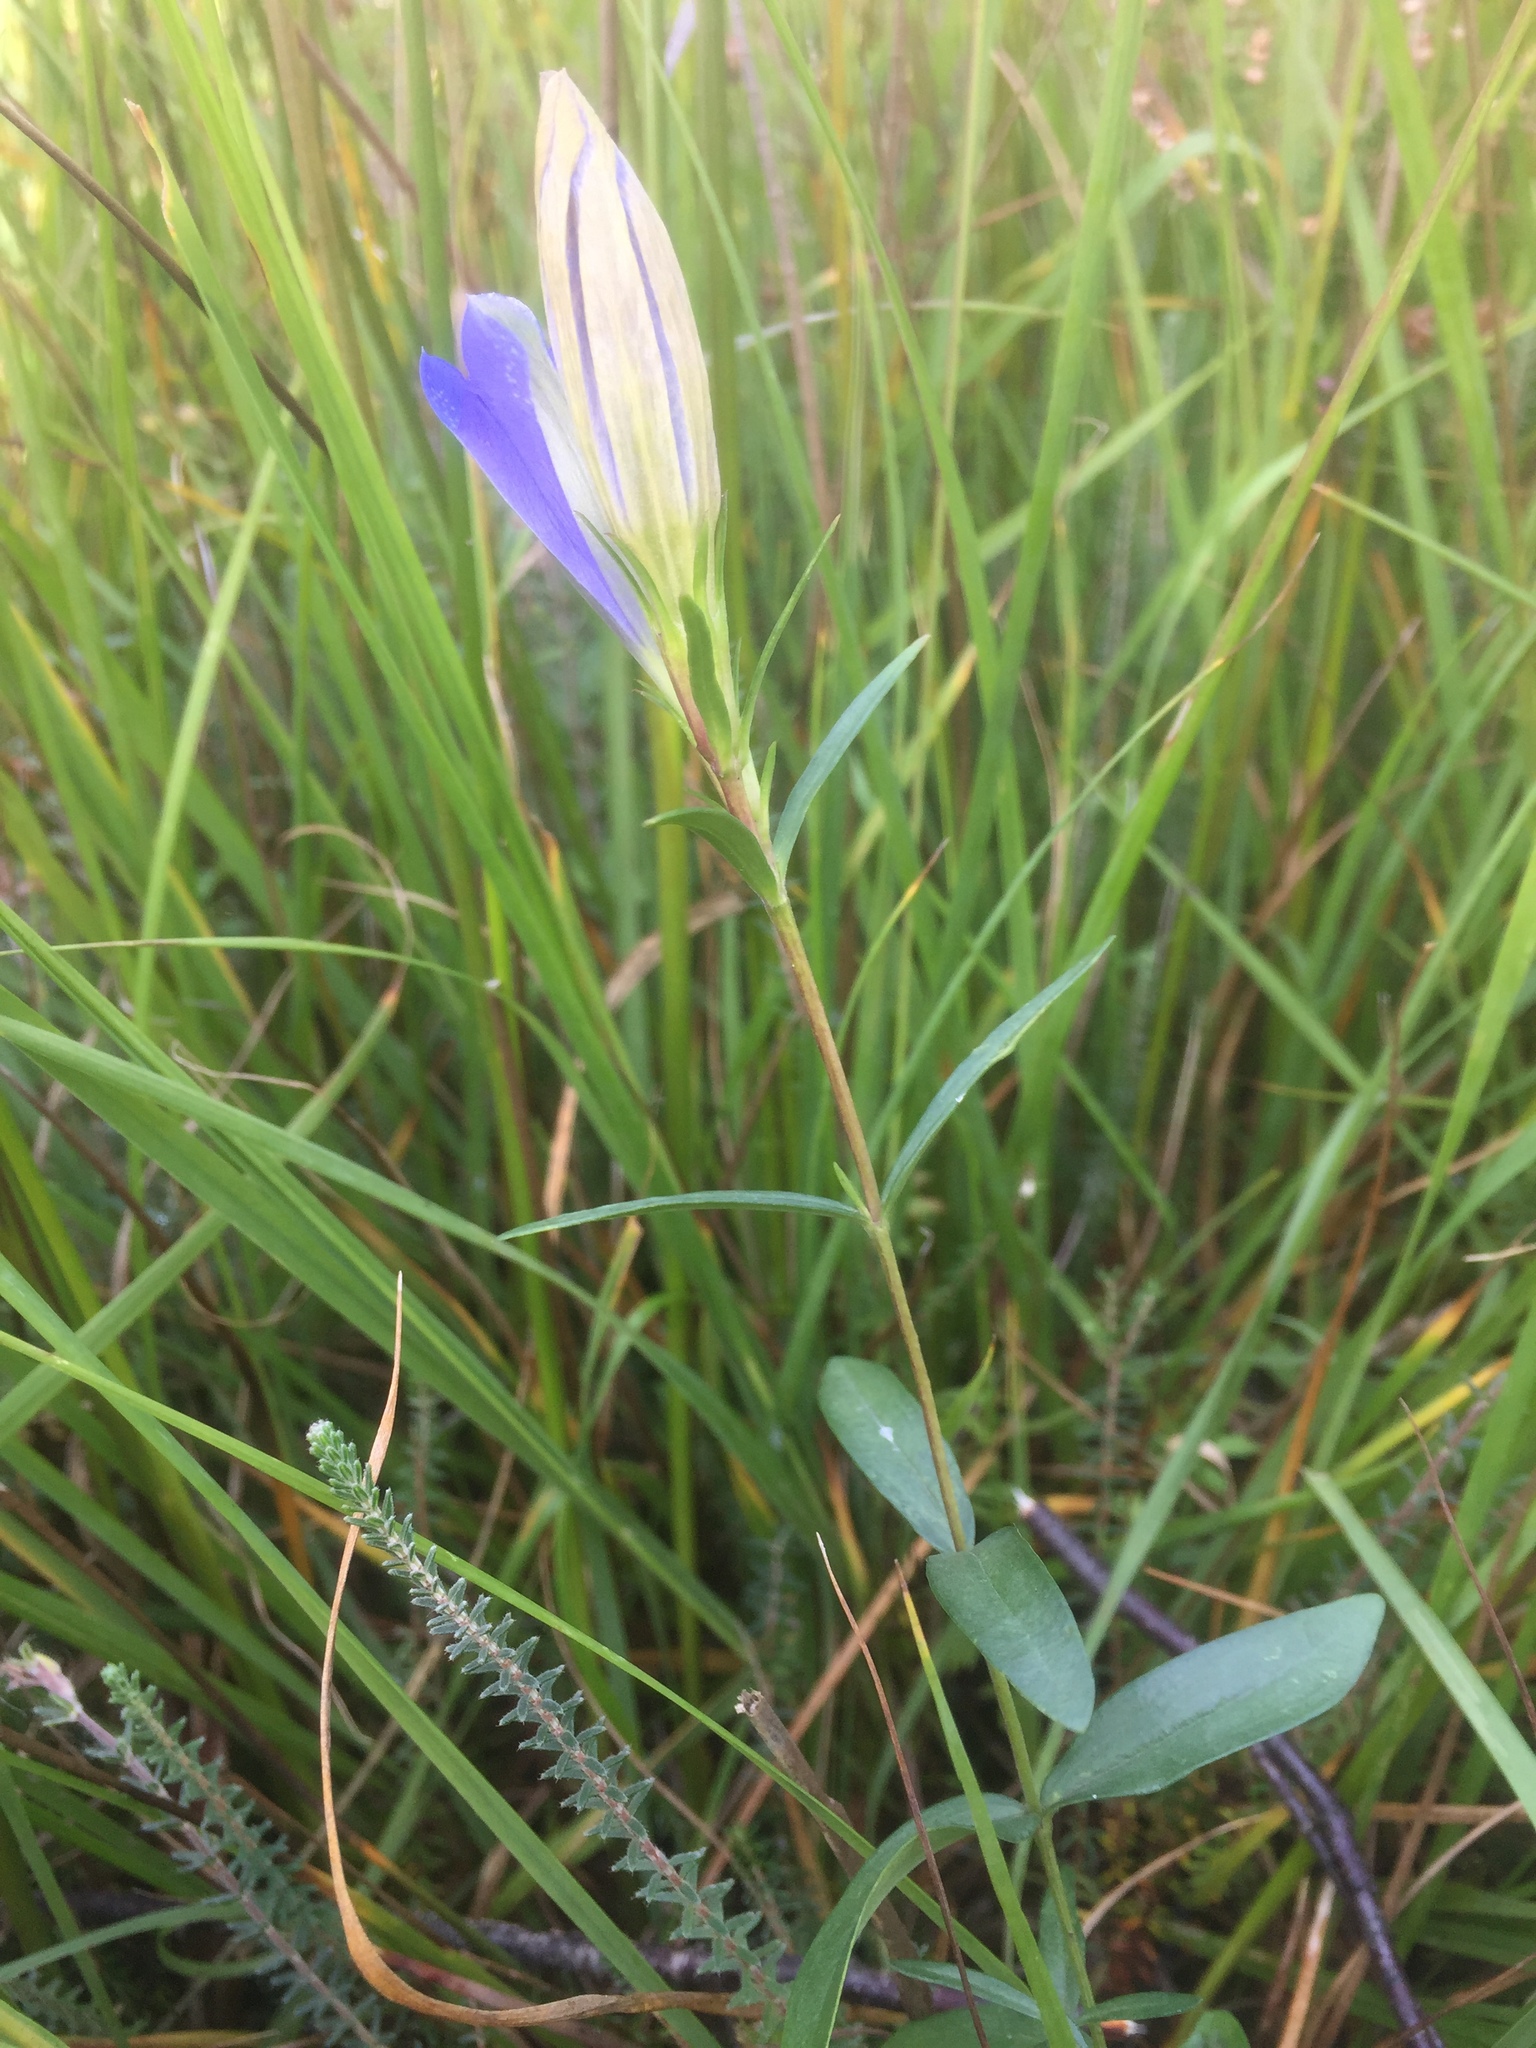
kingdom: Plantae
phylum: Tracheophyta
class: Magnoliopsida
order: Gentianales
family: Gentianaceae
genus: Gentiana
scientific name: Gentiana pneumonanthe
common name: Marsh gentian
